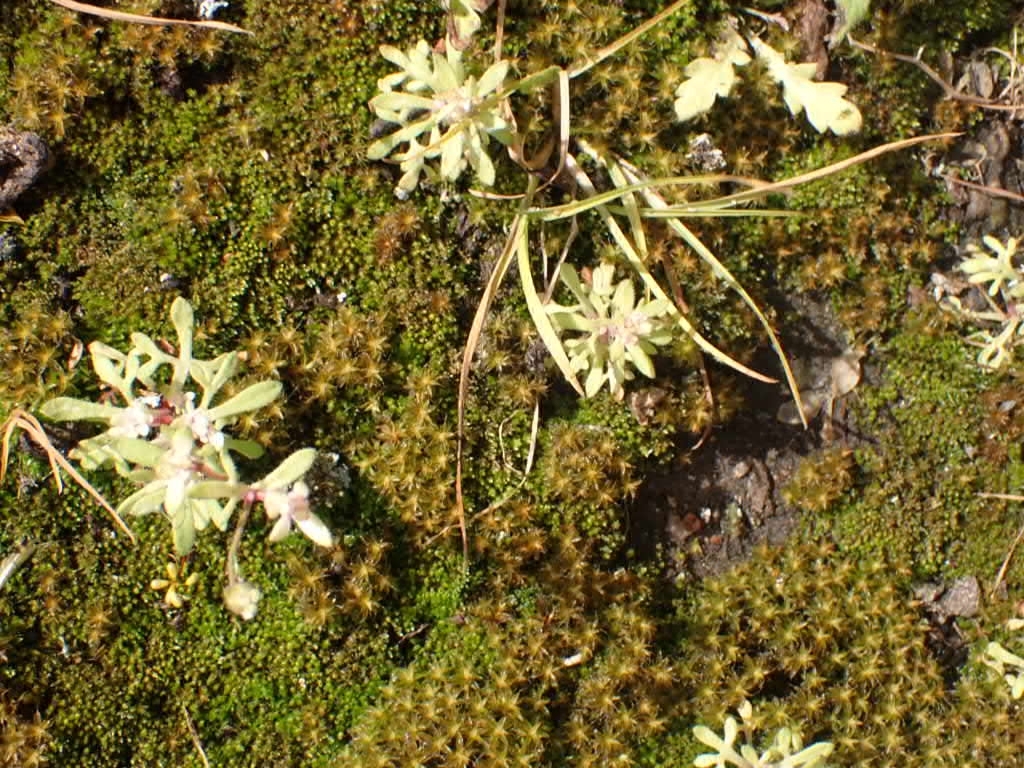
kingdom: Plantae
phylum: Tracheophyta
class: Magnoliopsida
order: Saxifragales
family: Saxifragaceae
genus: Saxifraga
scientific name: Saxifraga tridactylites
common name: Rue-leaved saxifrage
